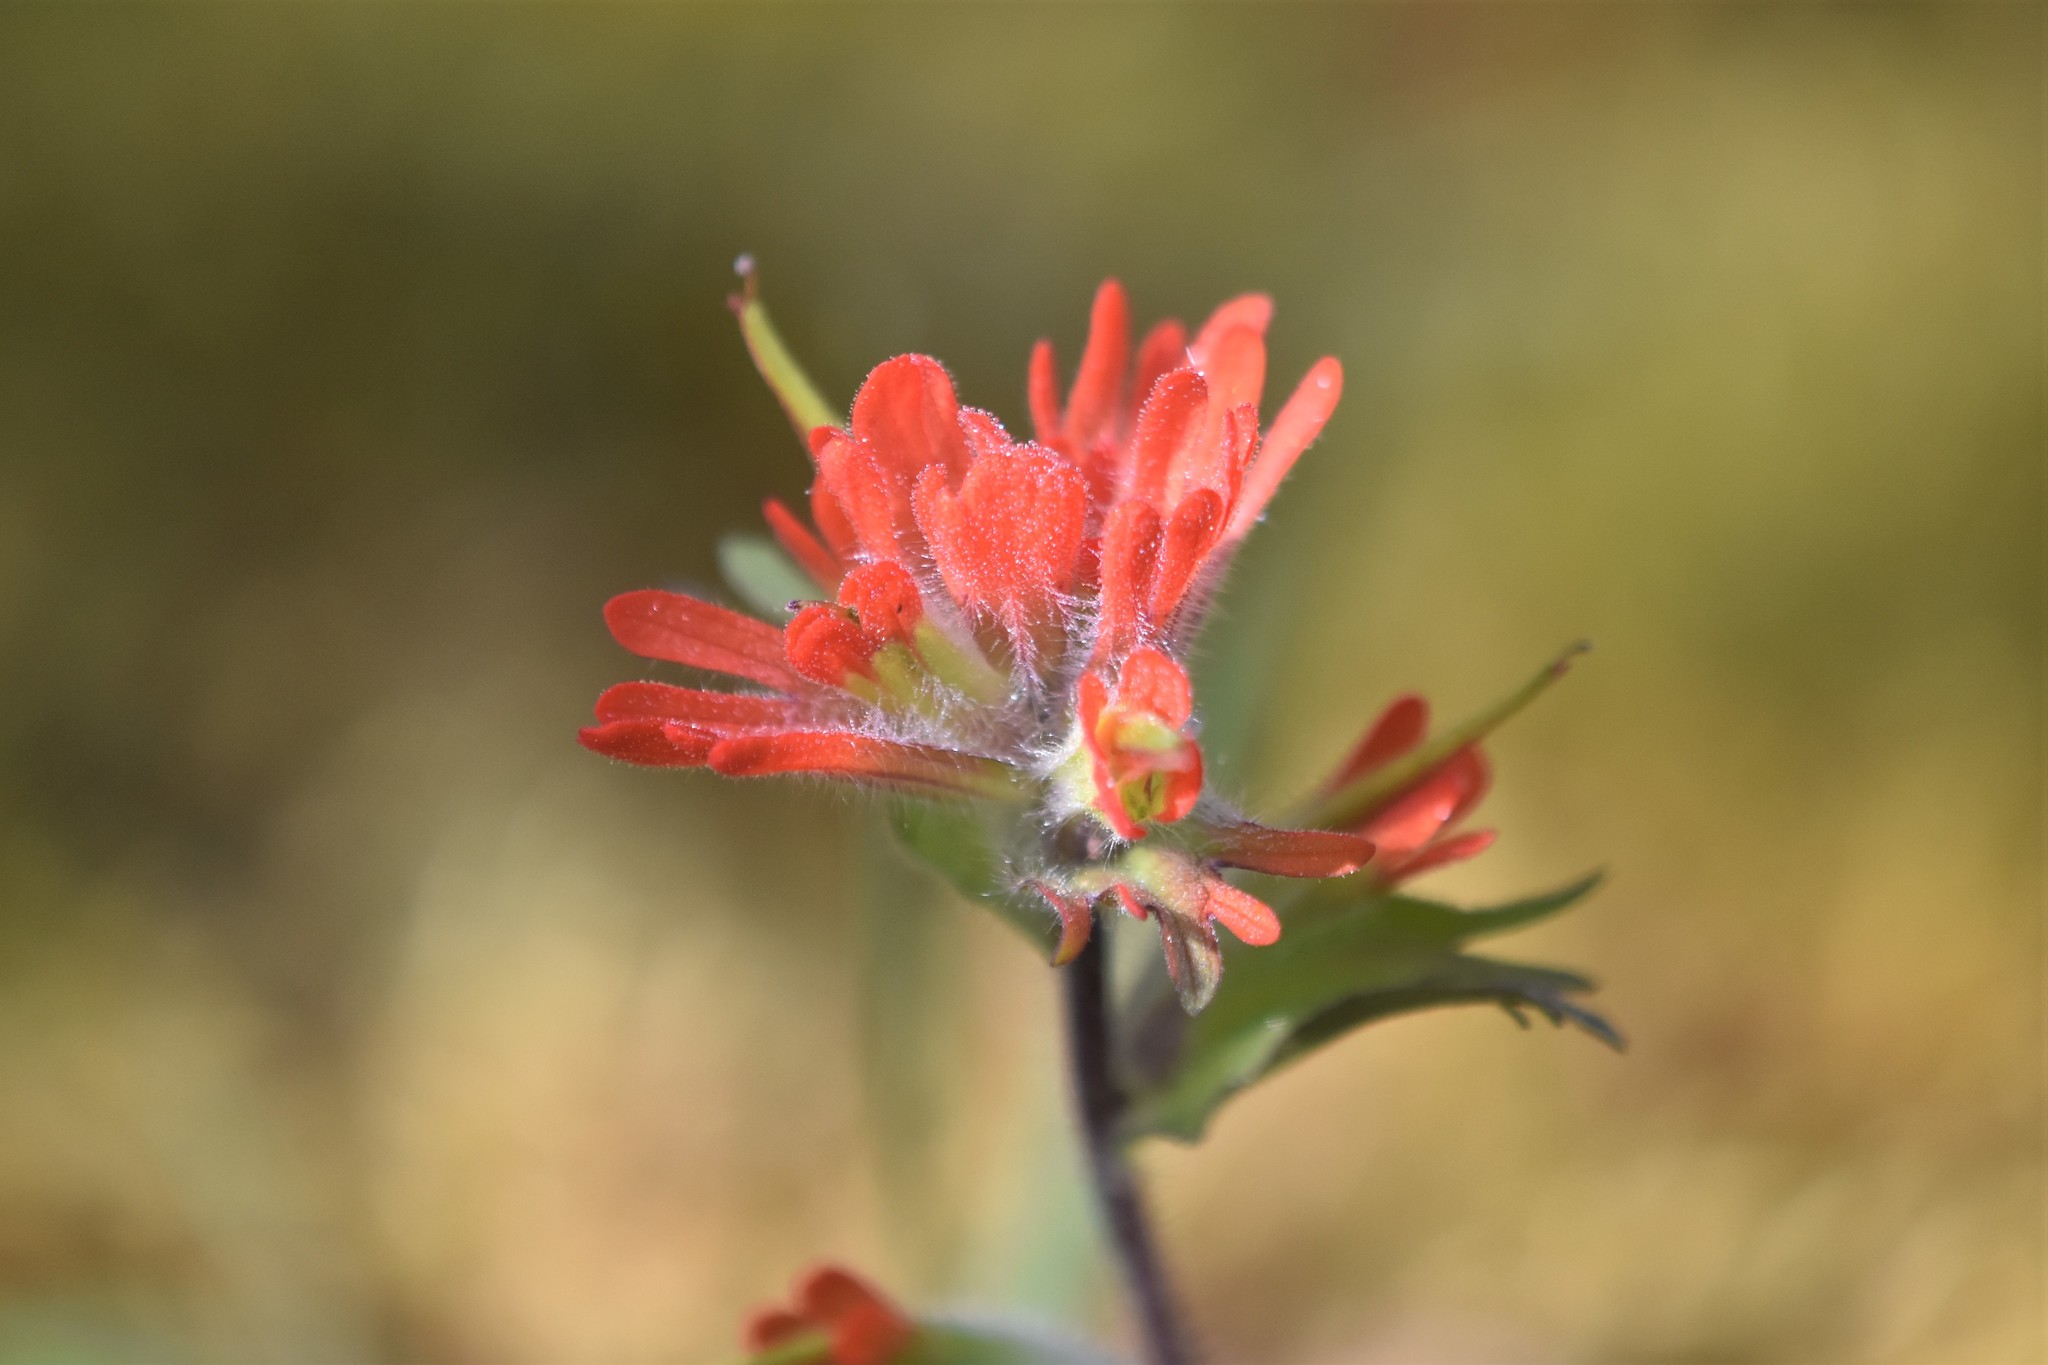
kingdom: Plantae
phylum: Tracheophyta
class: Magnoliopsida
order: Lamiales
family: Orobanchaceae
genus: Castilleja
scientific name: Castilleja hispida
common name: Bristly paintbrush
